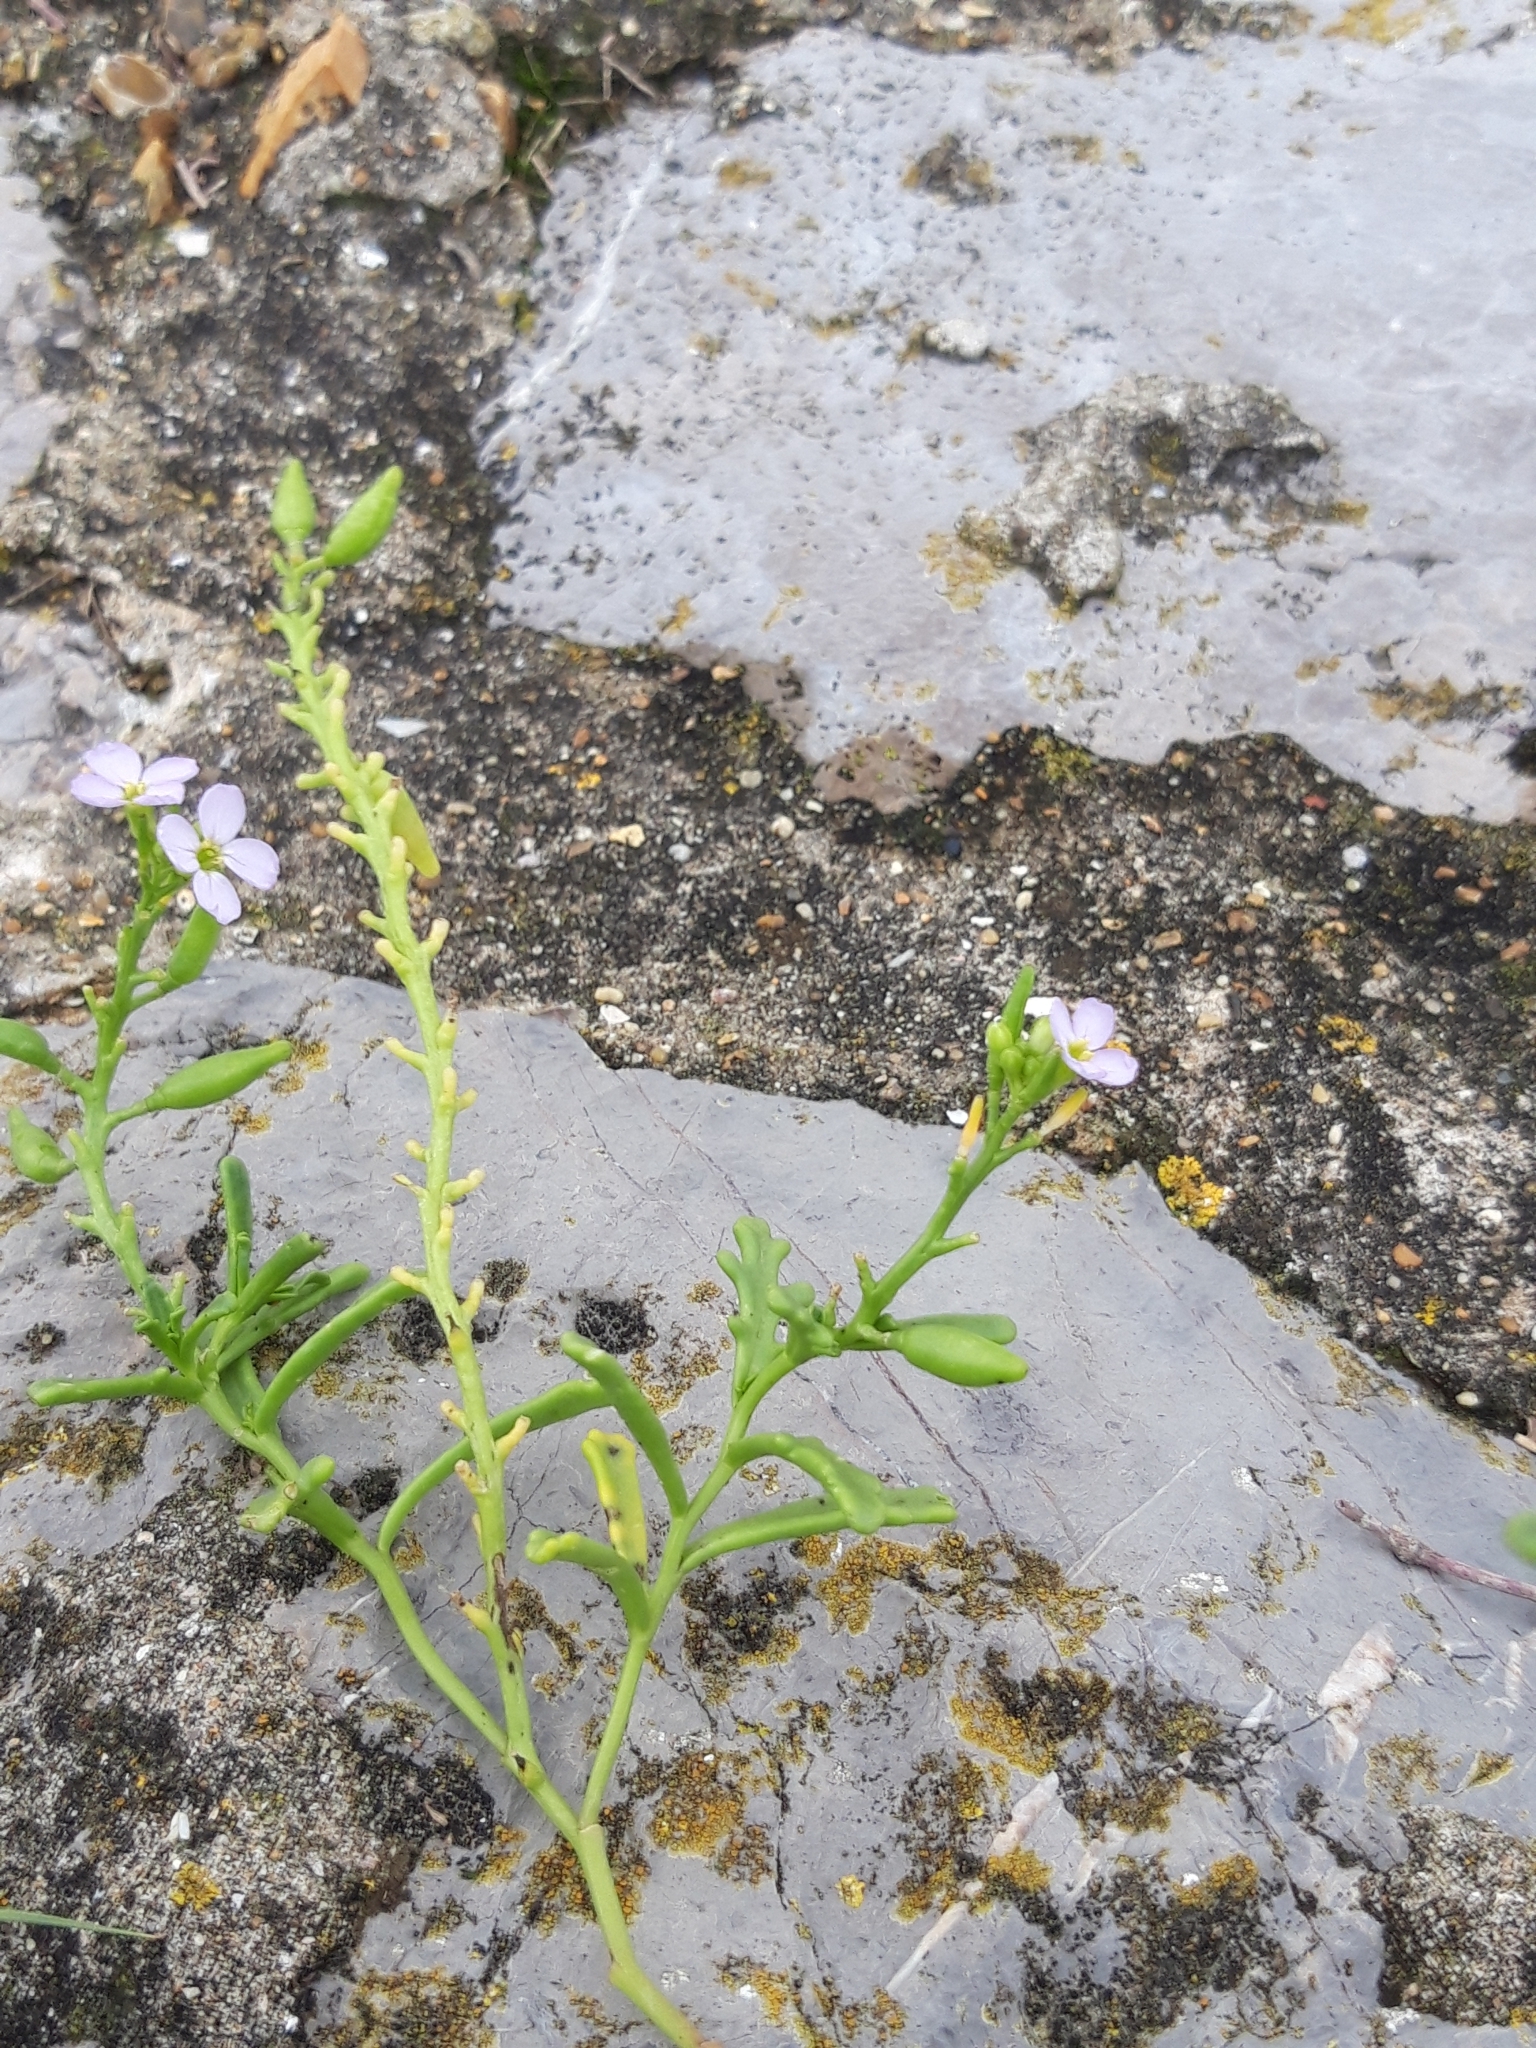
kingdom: Plantae
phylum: Tracheophyta
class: Magnoliopsida
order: Brassicales
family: Brassicaceae
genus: Cakile
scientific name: Cakile maritima
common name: Sea rocket
